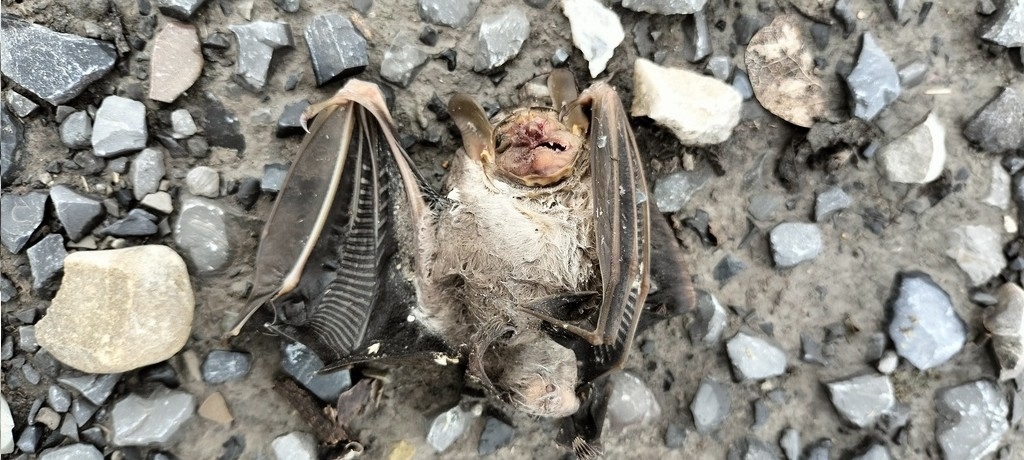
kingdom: Animalia
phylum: Chordata
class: Mammalia
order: Chiroptera
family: Phyllostomidae
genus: Centurio
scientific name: Centurio senex
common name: Wrinkle-faced bat
